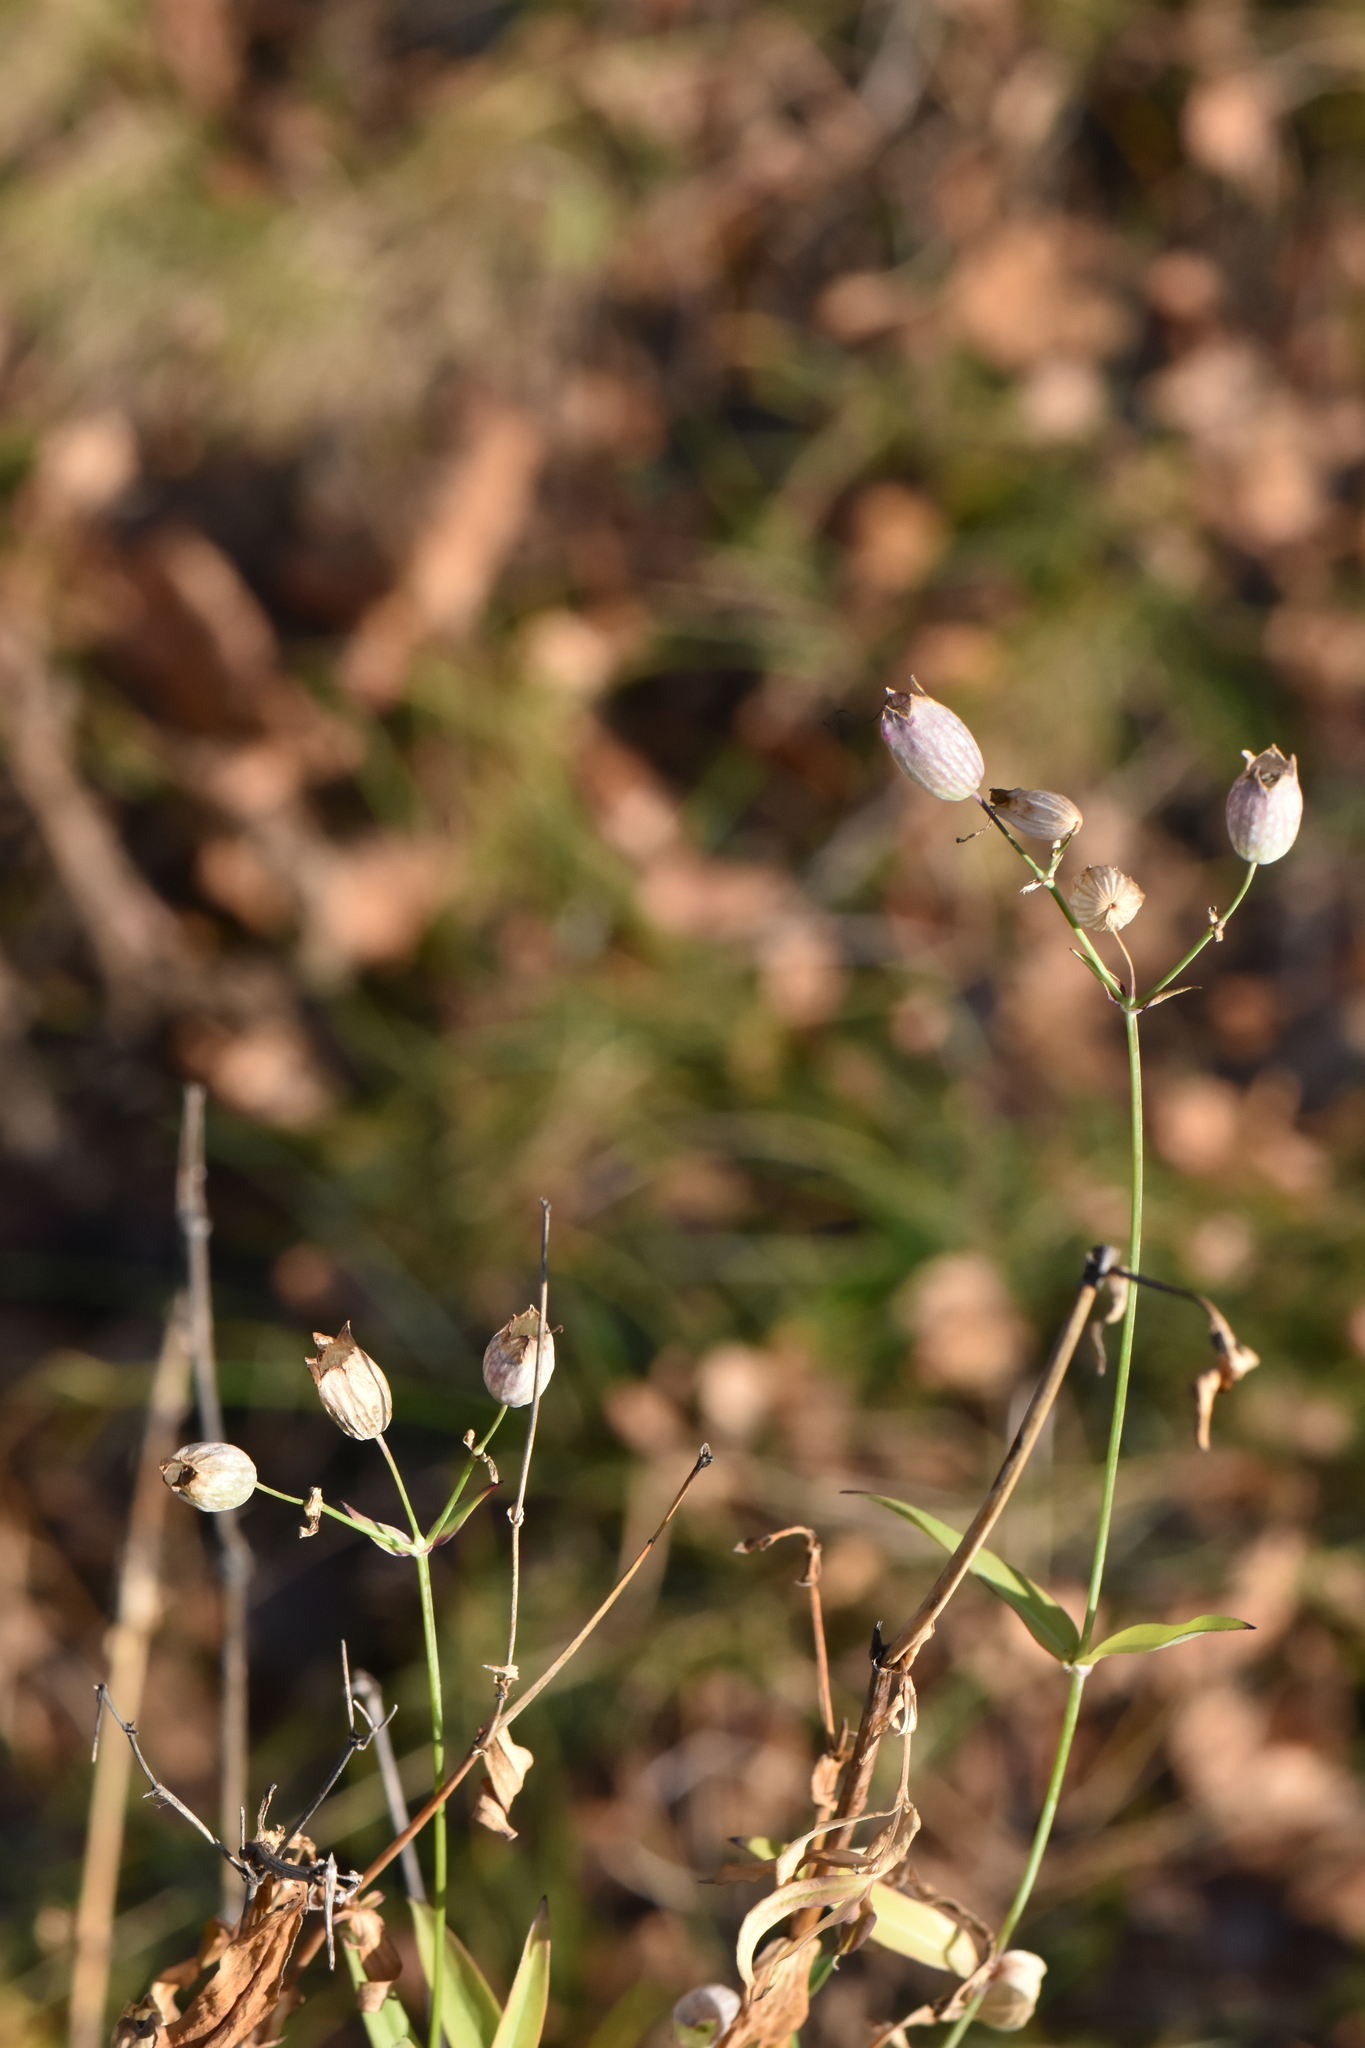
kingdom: Plantae
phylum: Tracheophyta
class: Magnoliopsida
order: Caryophyllales
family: Caryophyllaceae
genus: Silene
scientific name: Silene vulgaris
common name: Bladder campion
